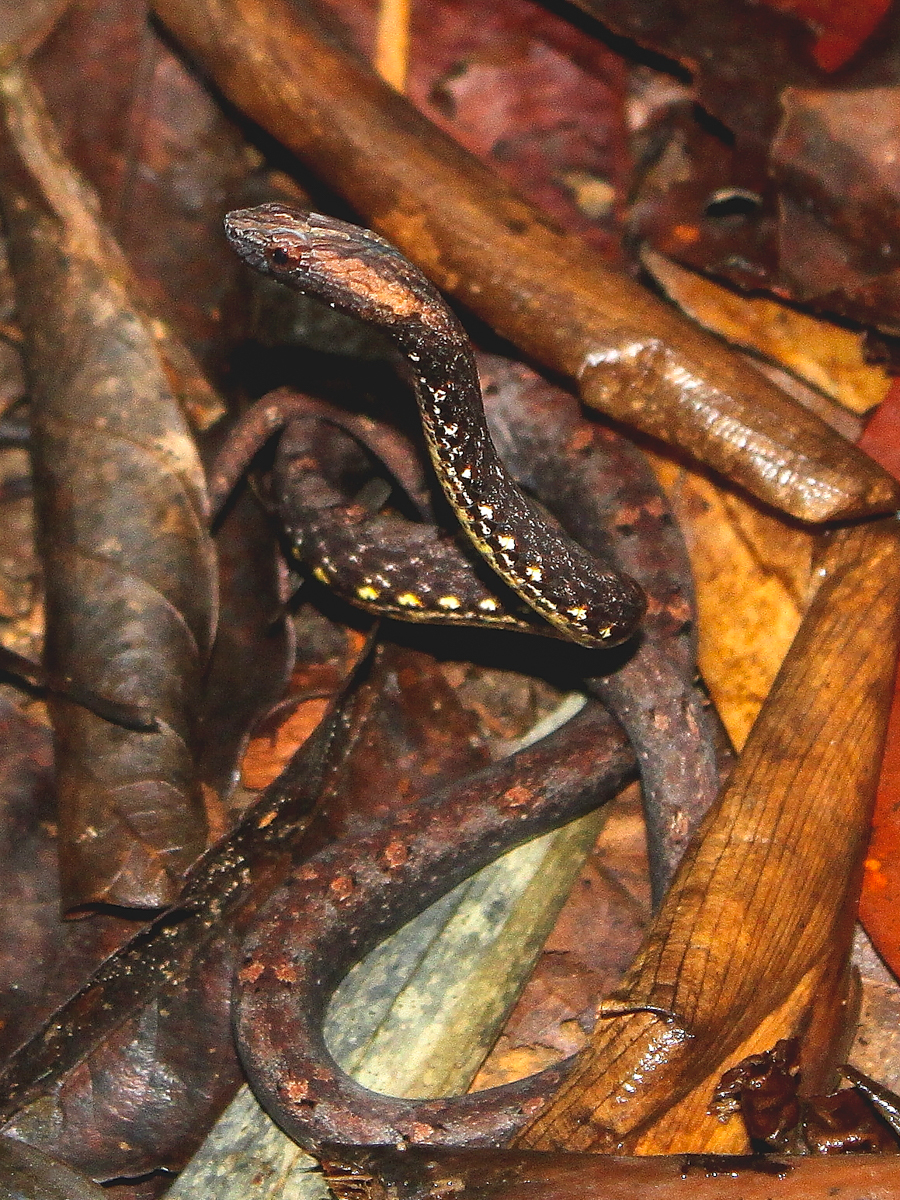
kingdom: Animalia
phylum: Chordata
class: Squamata
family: Pseudaspididae
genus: Psammodynastes
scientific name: Psammodynastes pulverulentus
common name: Common mock viper
